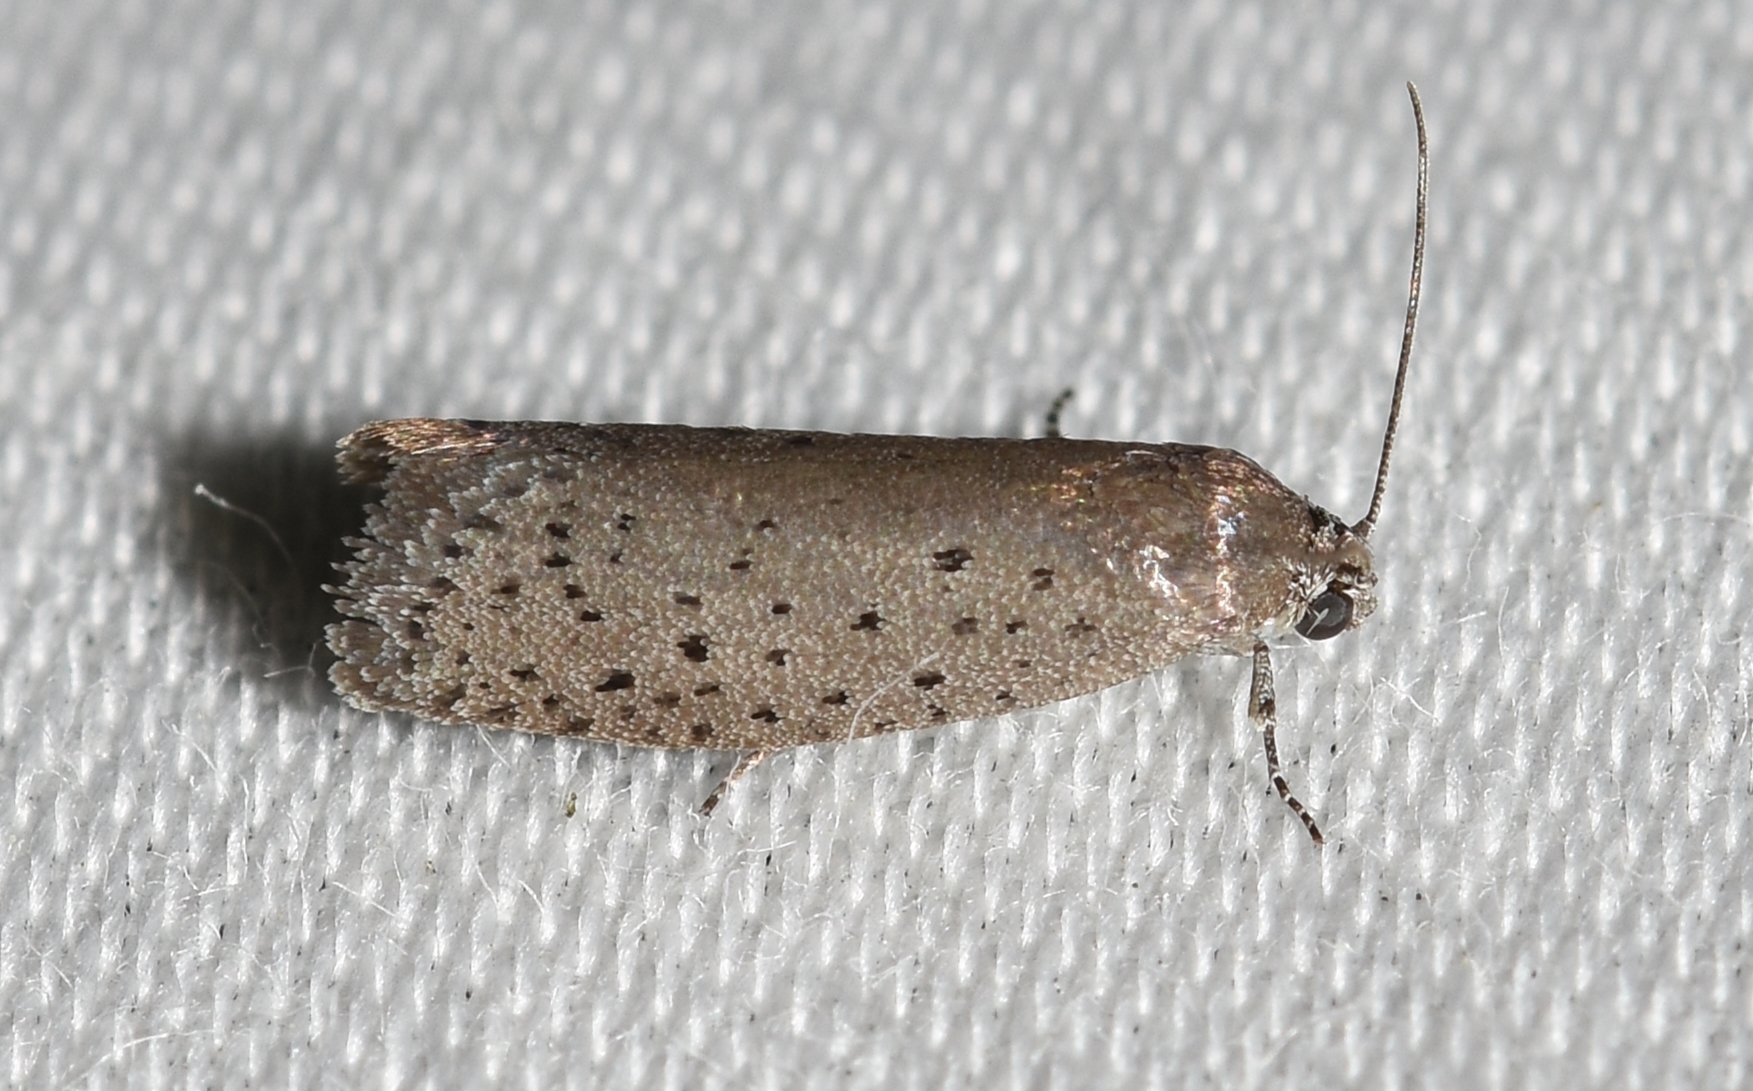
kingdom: Animalia
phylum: Arthropoda
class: Insecta
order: Lepidoptera
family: Galacticidae
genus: Homadaula
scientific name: Homadaula anisocentra
